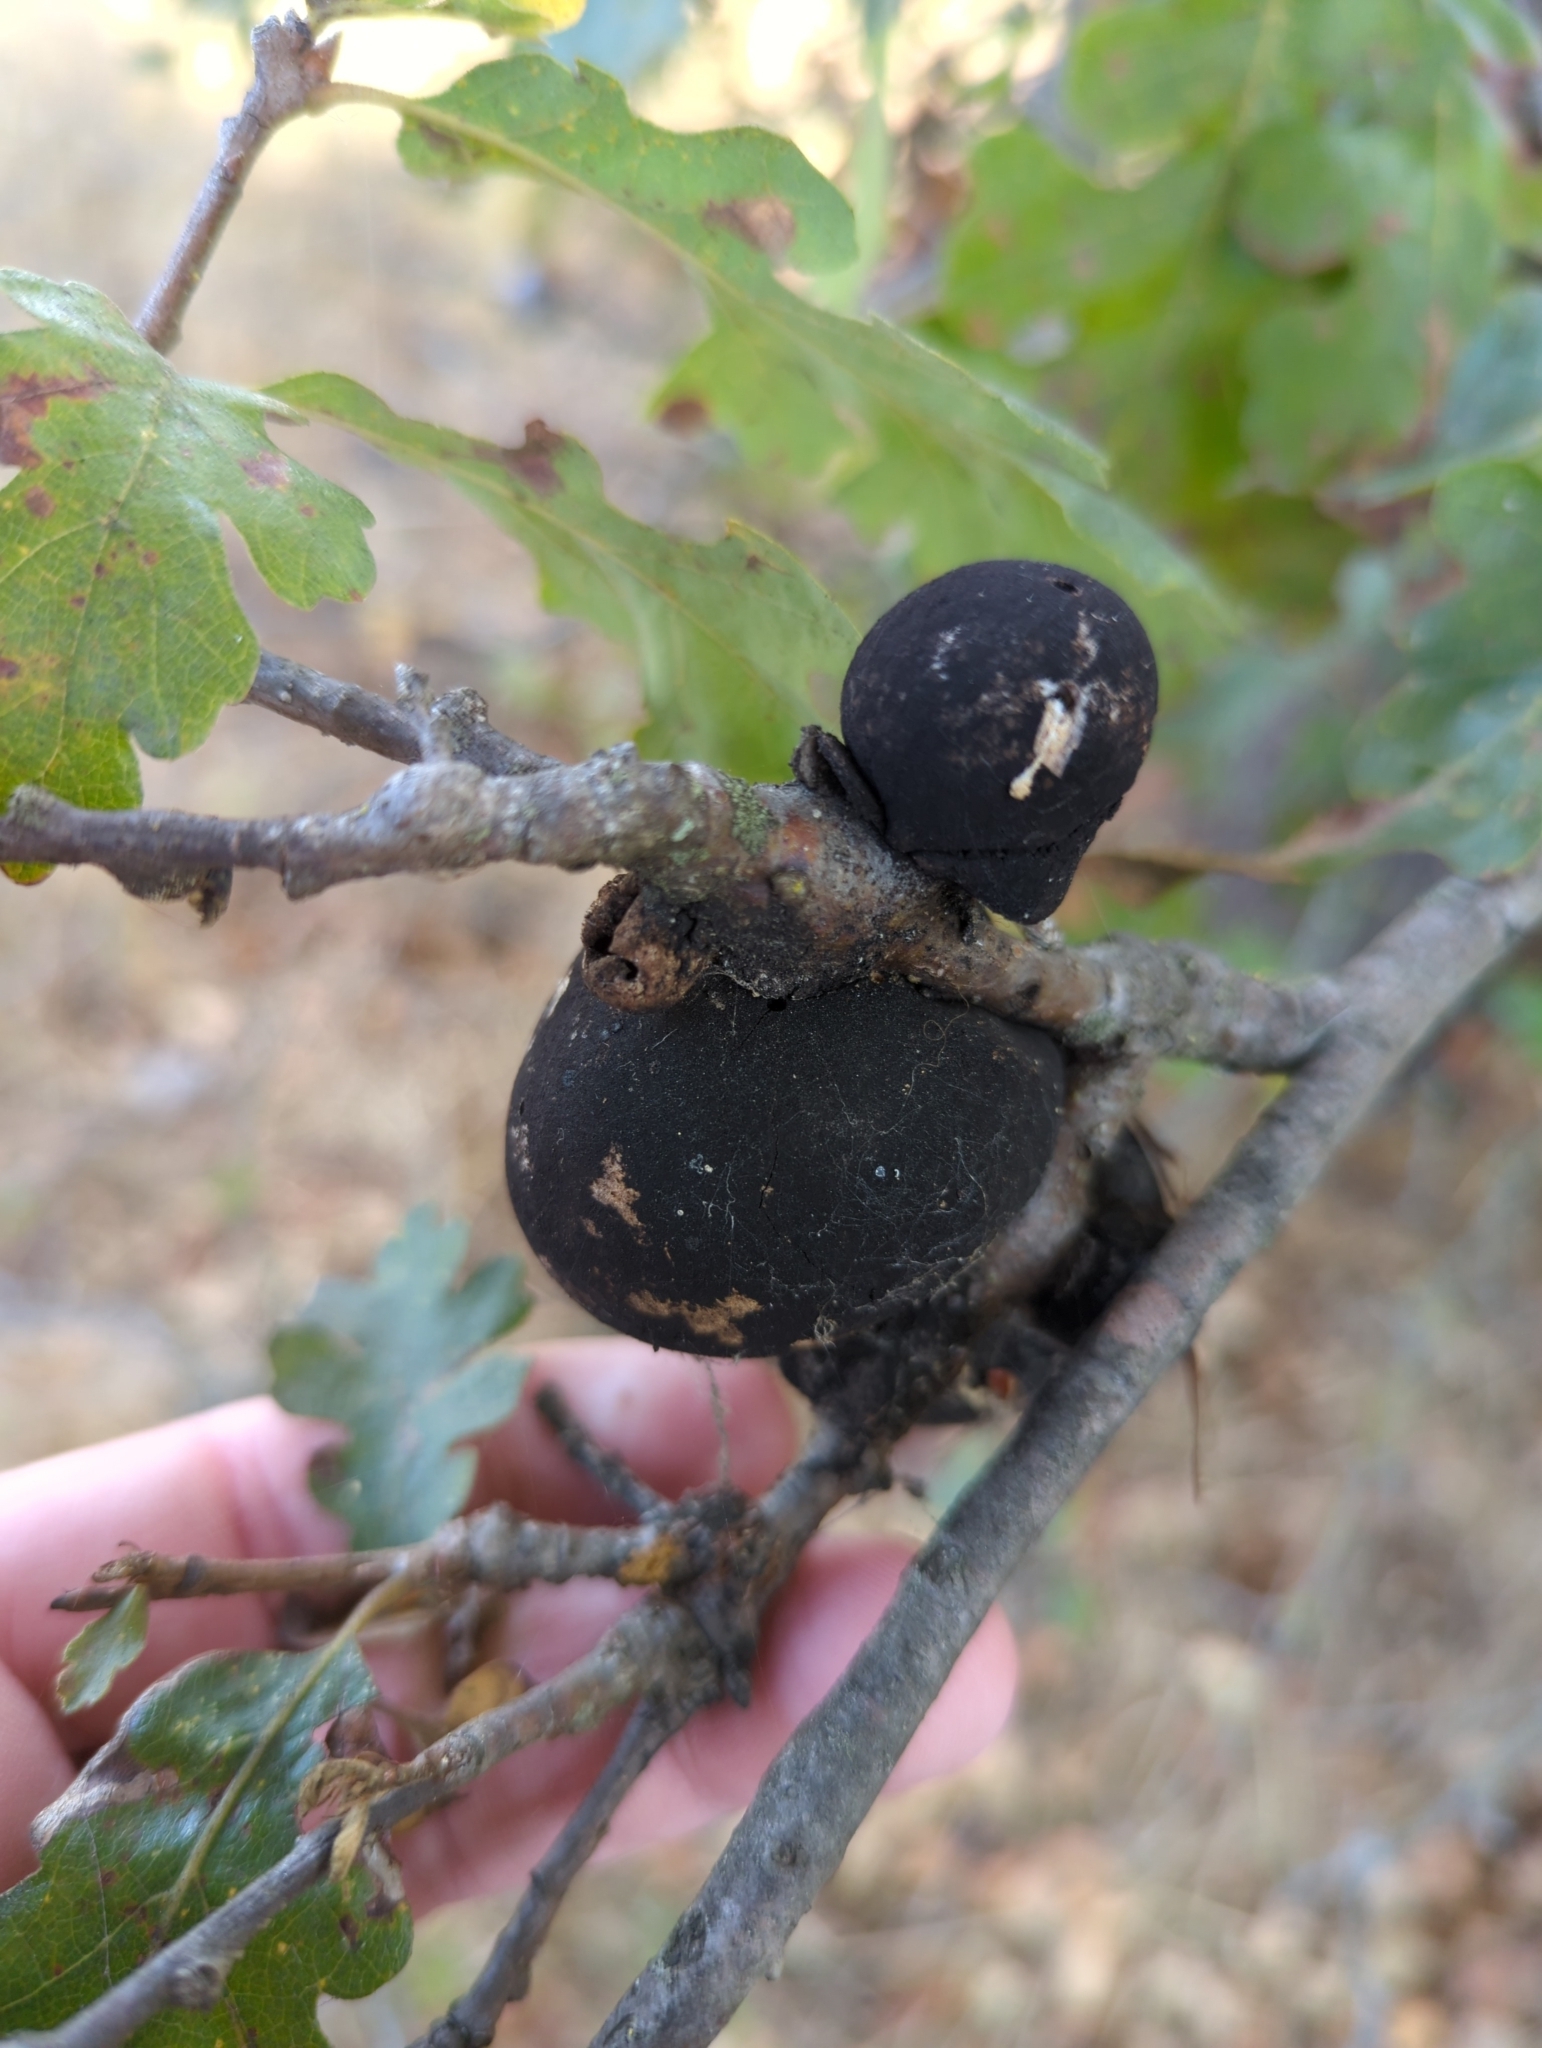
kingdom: Animalia
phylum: Arthropoda
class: Insecta
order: Hymenoptera
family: Cynipidae
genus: Andricus
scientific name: Andricus quercuscalifornicus
